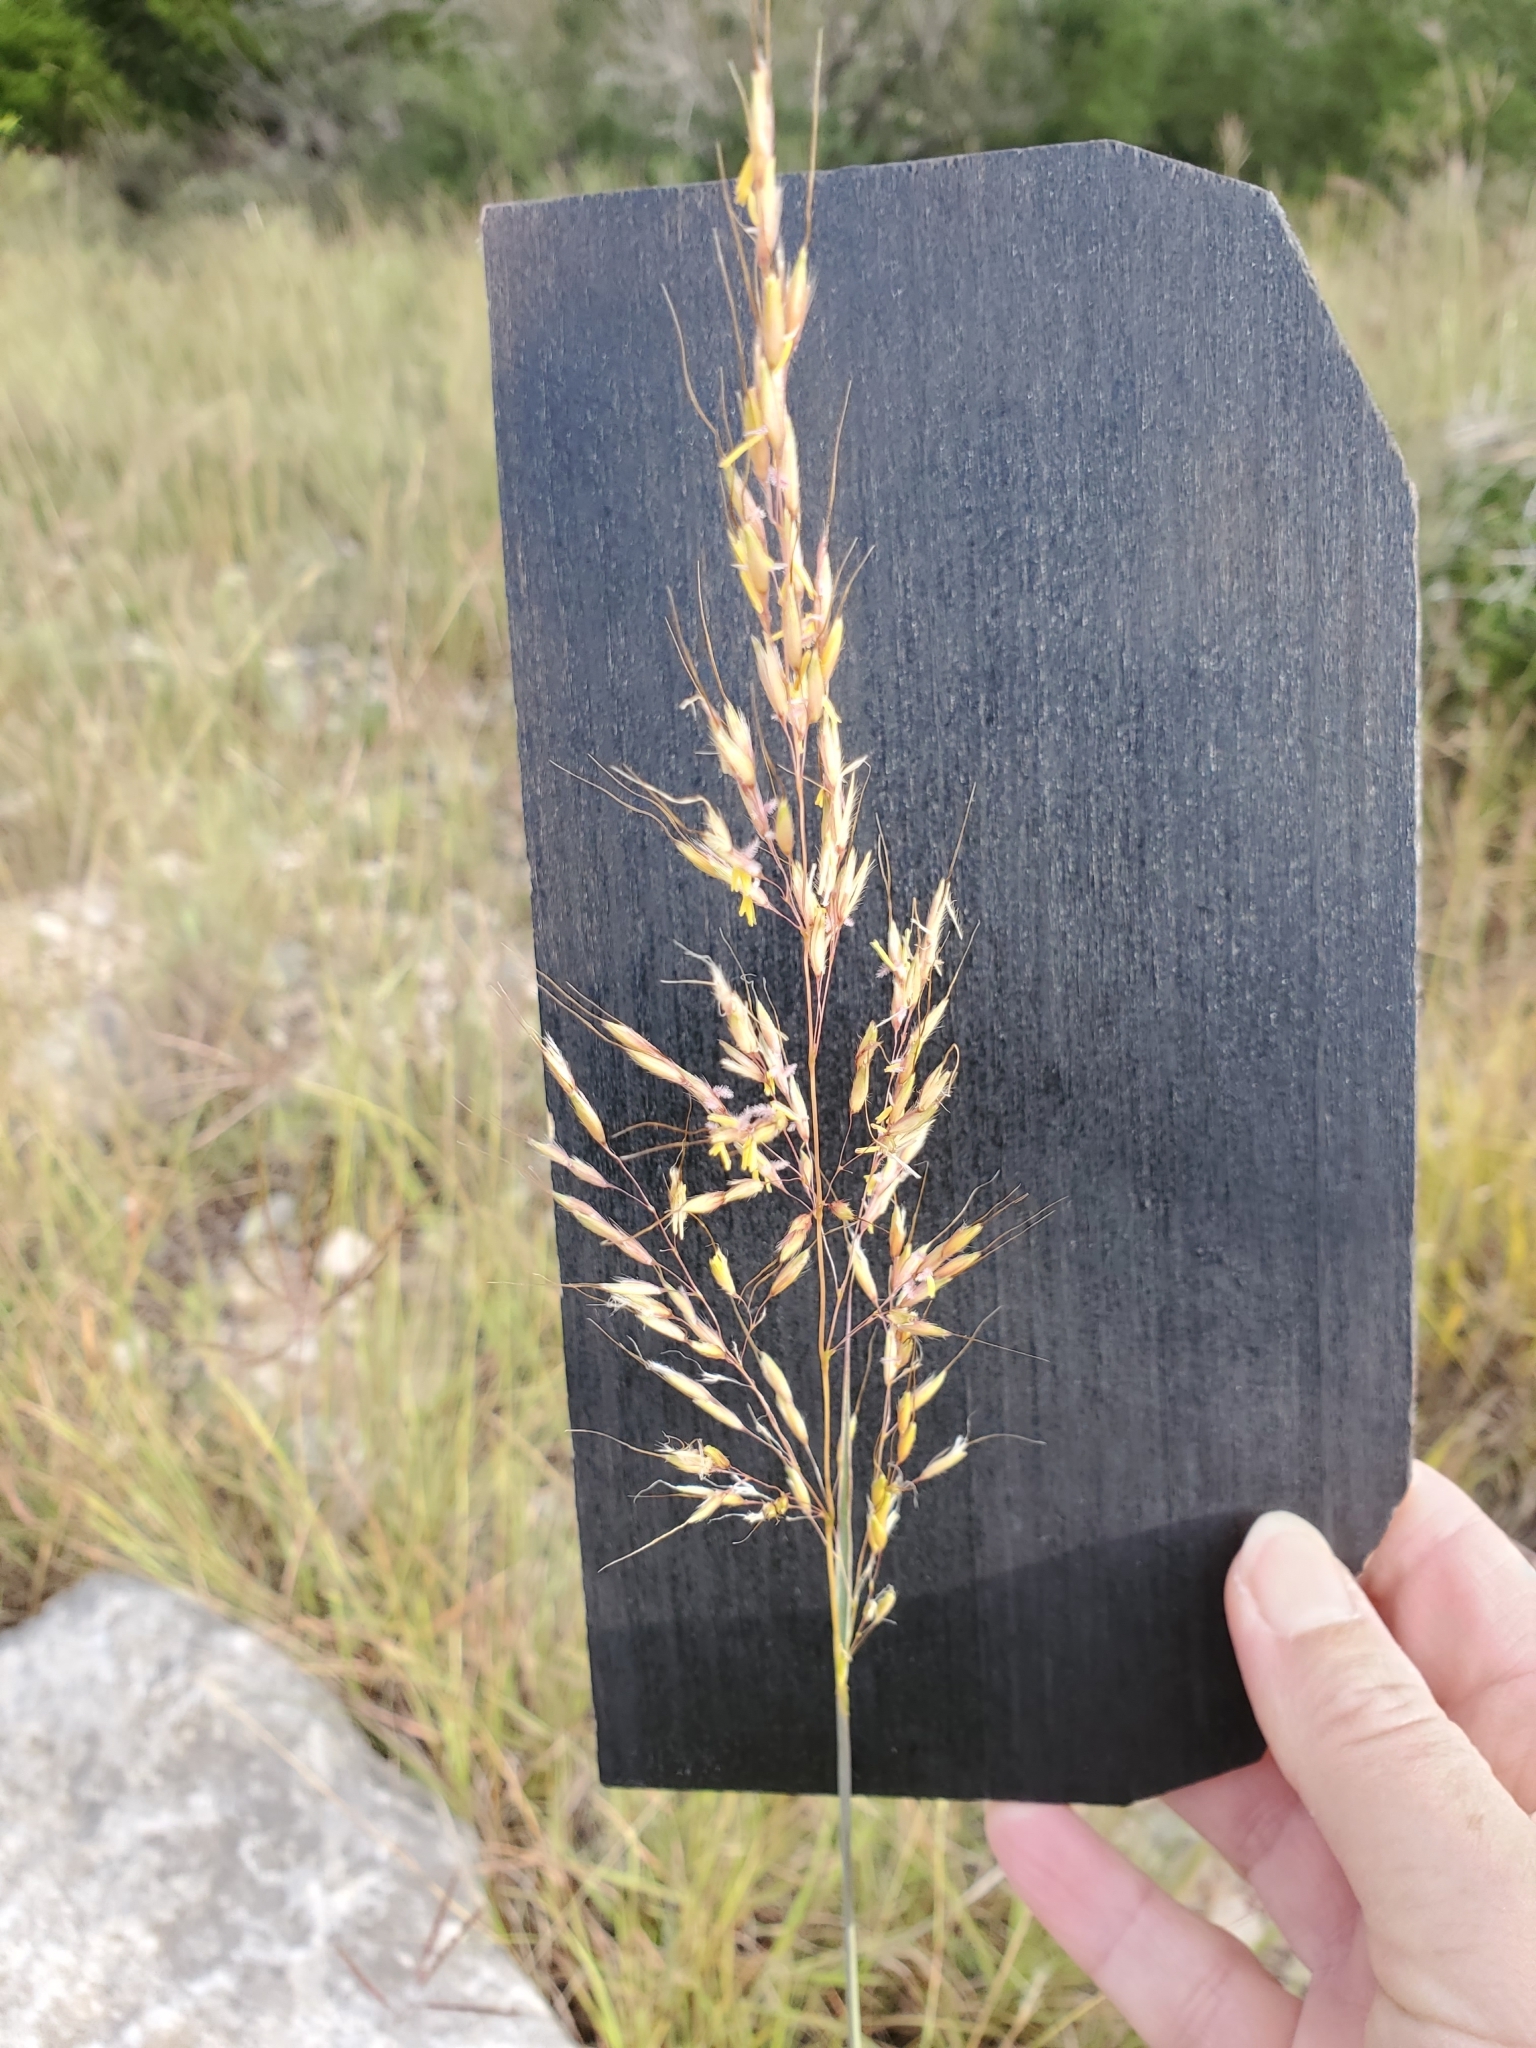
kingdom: Plantae
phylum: Tracheophyta
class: Liliopsida
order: Poales
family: Poaceae
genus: Sorghastrum
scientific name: Sorghastrum nutans
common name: Indian grass
